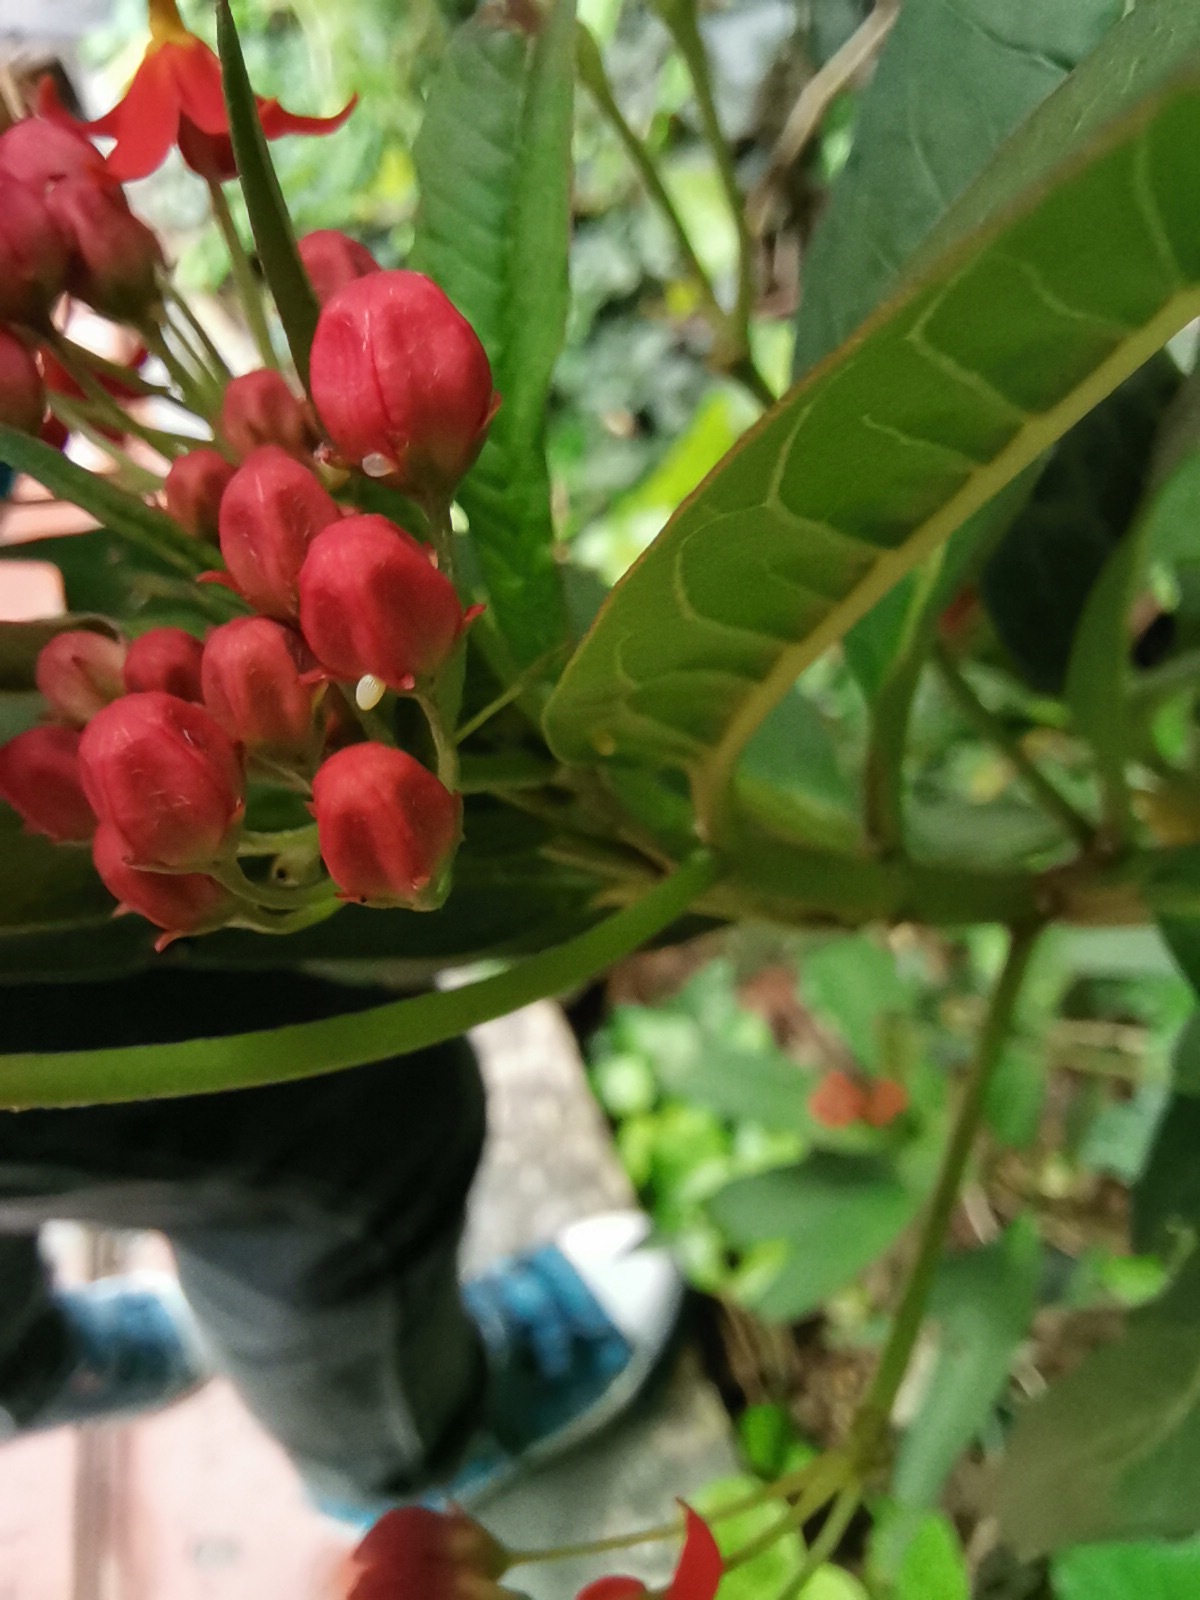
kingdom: Animalia
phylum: Arthropoda
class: Insecta
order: Lepidoptera
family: Nymphalidae
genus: Danaus
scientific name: Danaus plexippus
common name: Monarch
